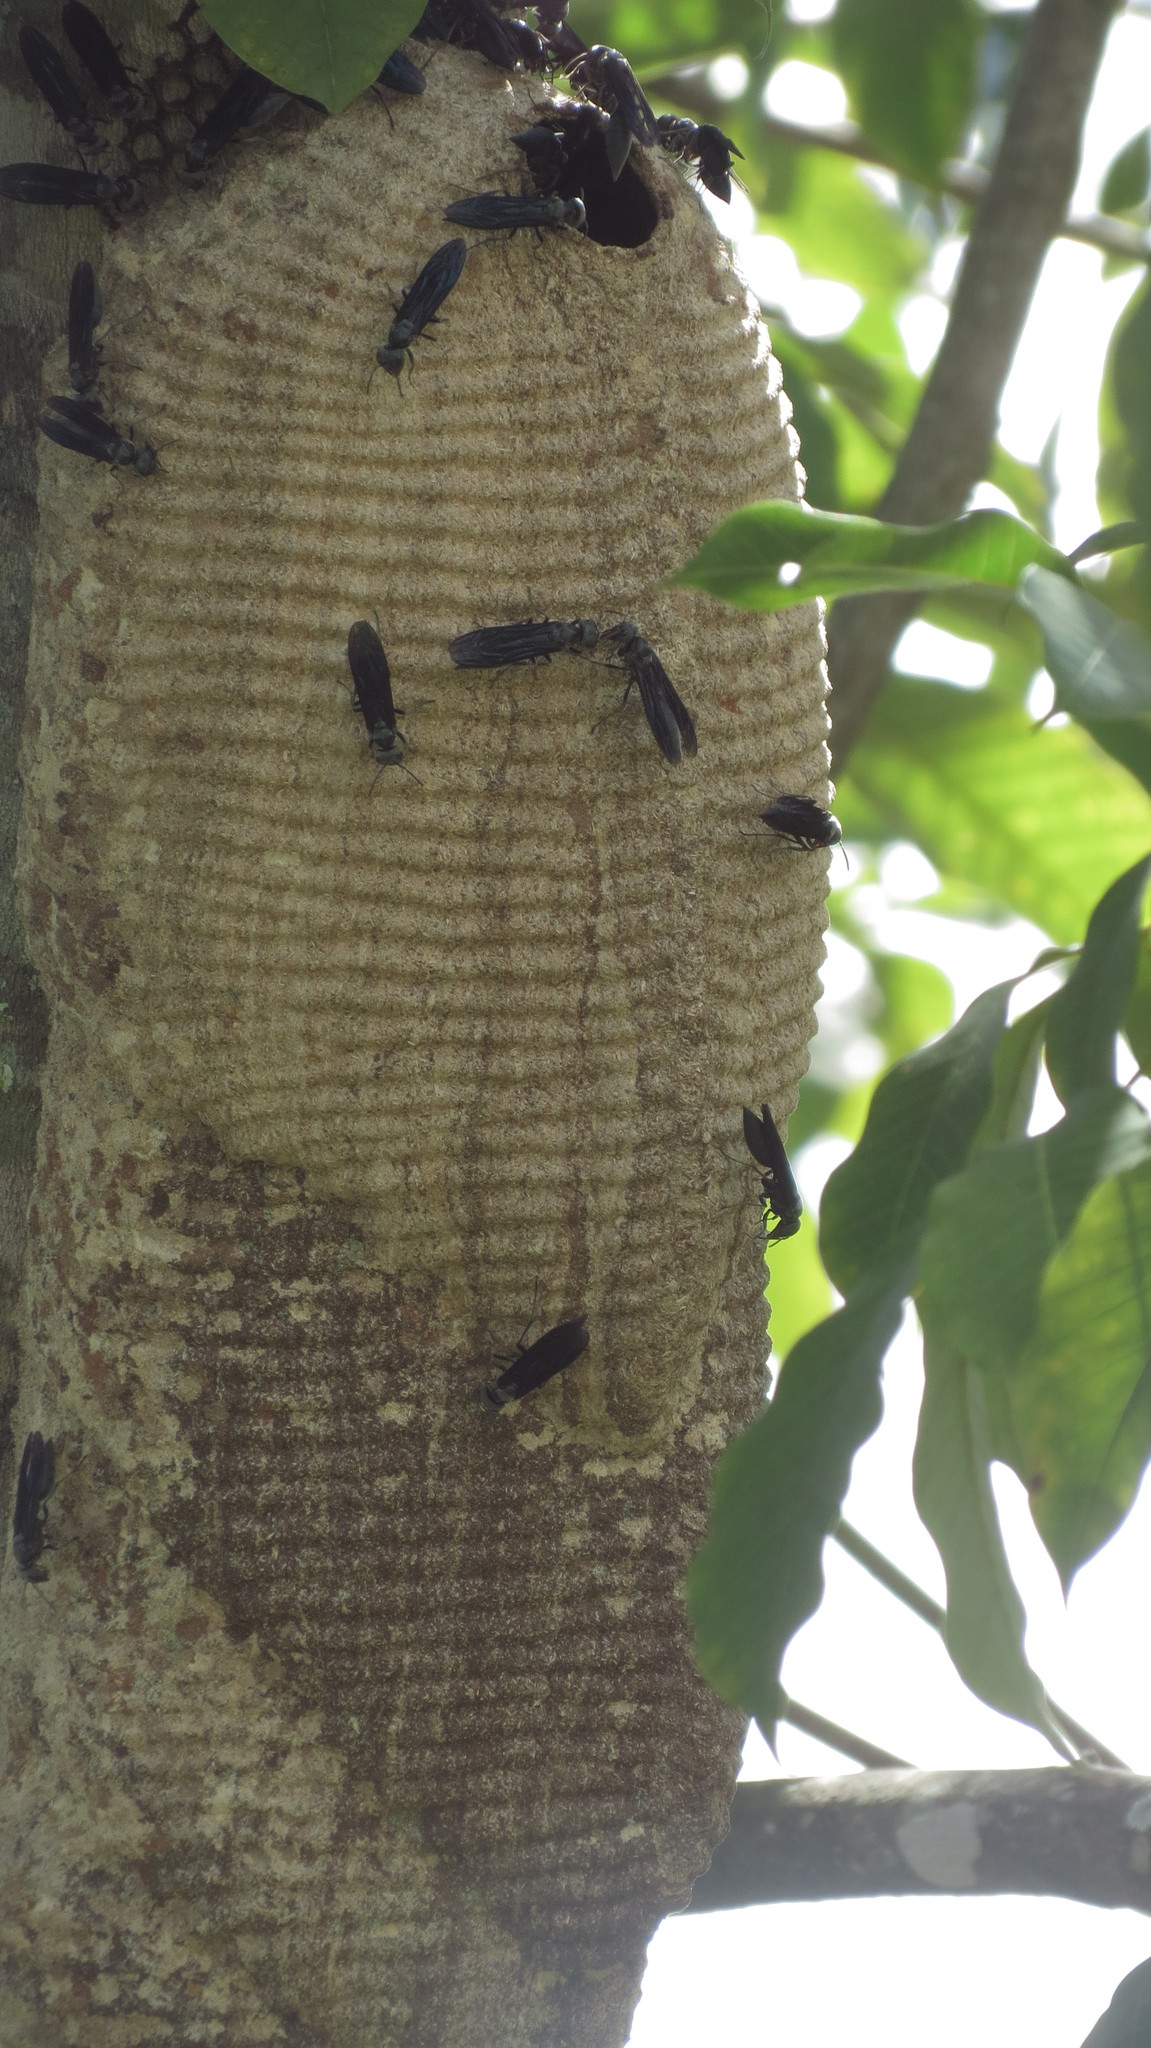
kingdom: Animalia
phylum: Arthropoda
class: Insecta
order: Hymenoptera
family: Vespidae
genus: Synoeca
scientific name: Synoeca septentrionalis
